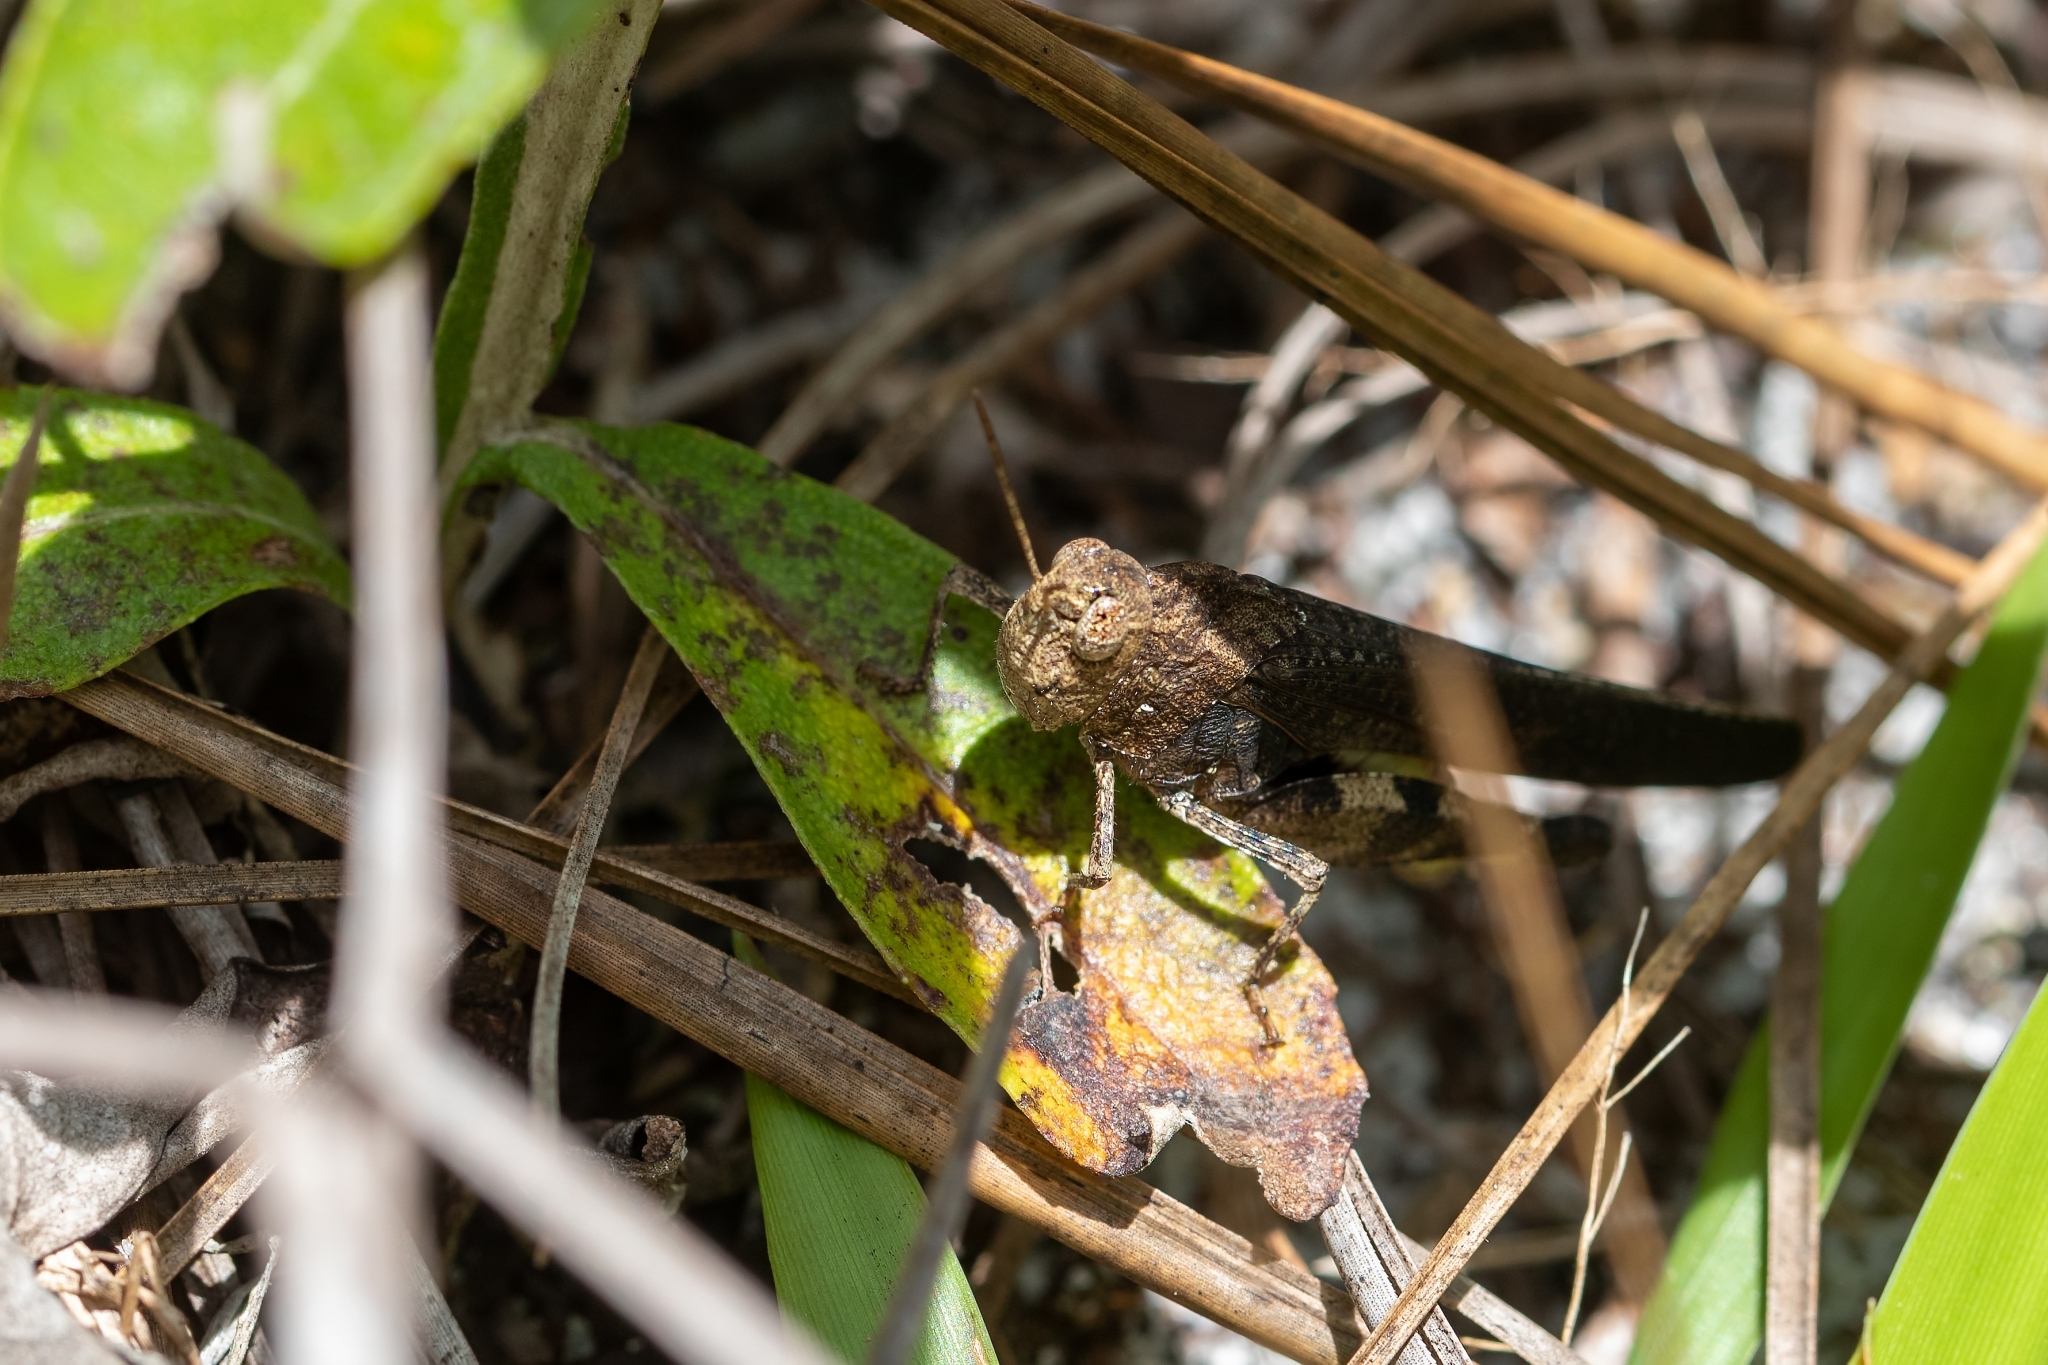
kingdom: Animalia
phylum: Arthropoda
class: Insecta
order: Orthoptera
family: Acrididae
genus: Arphia
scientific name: Arphia granulata
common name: Southern yellow-winged grasshopper
